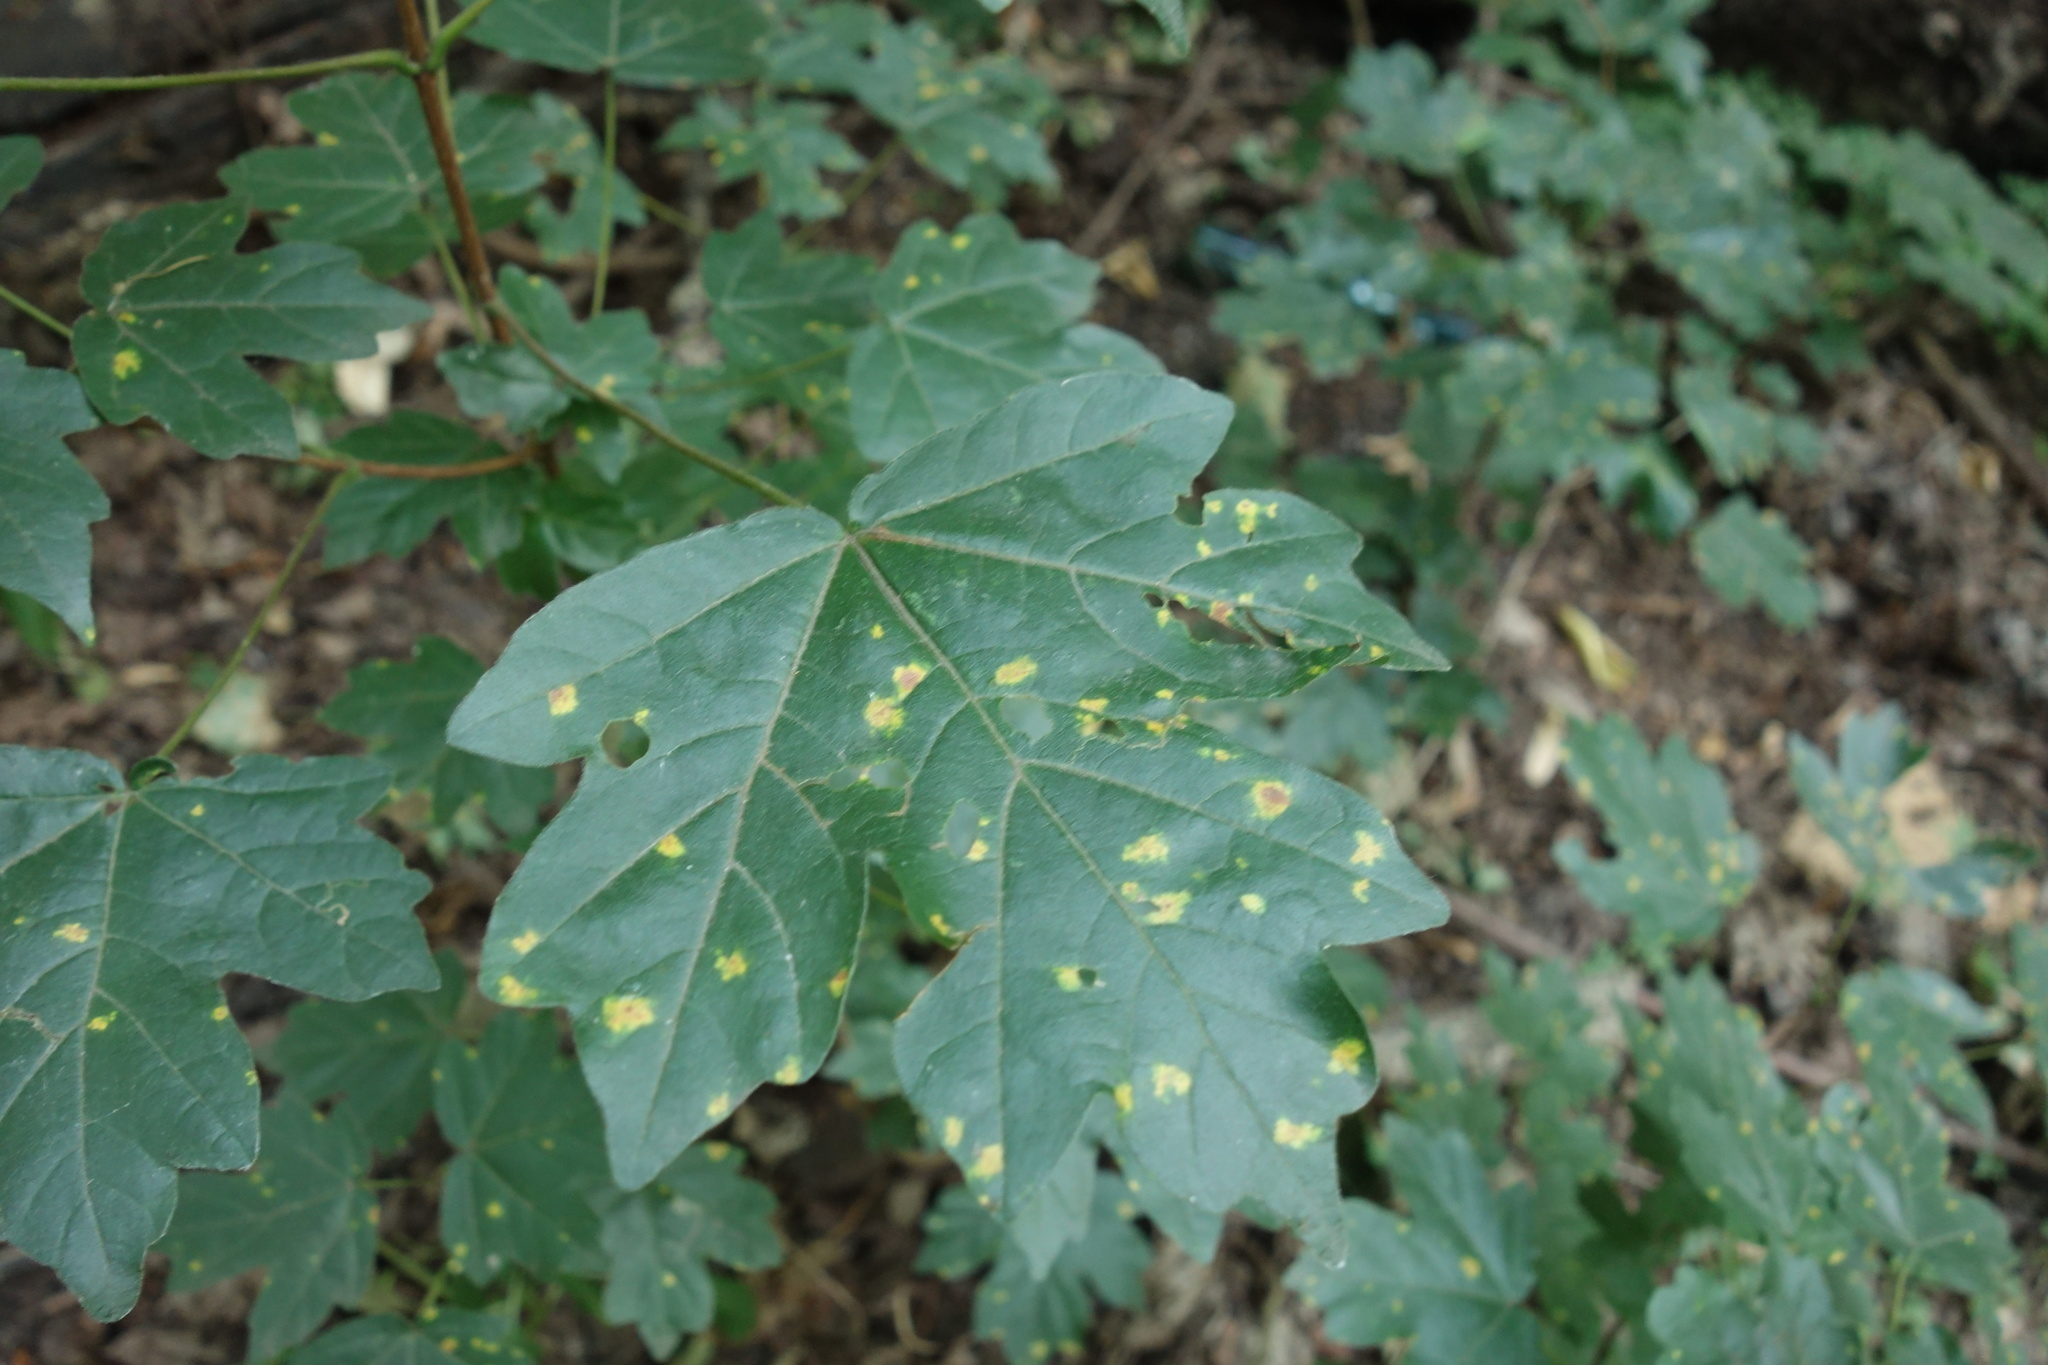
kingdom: Plantae
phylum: Tracheophyta
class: Magnoliopsida
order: Sapindales
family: Sapindaceae
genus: Acer
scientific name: Acer campestre
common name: Field maple
